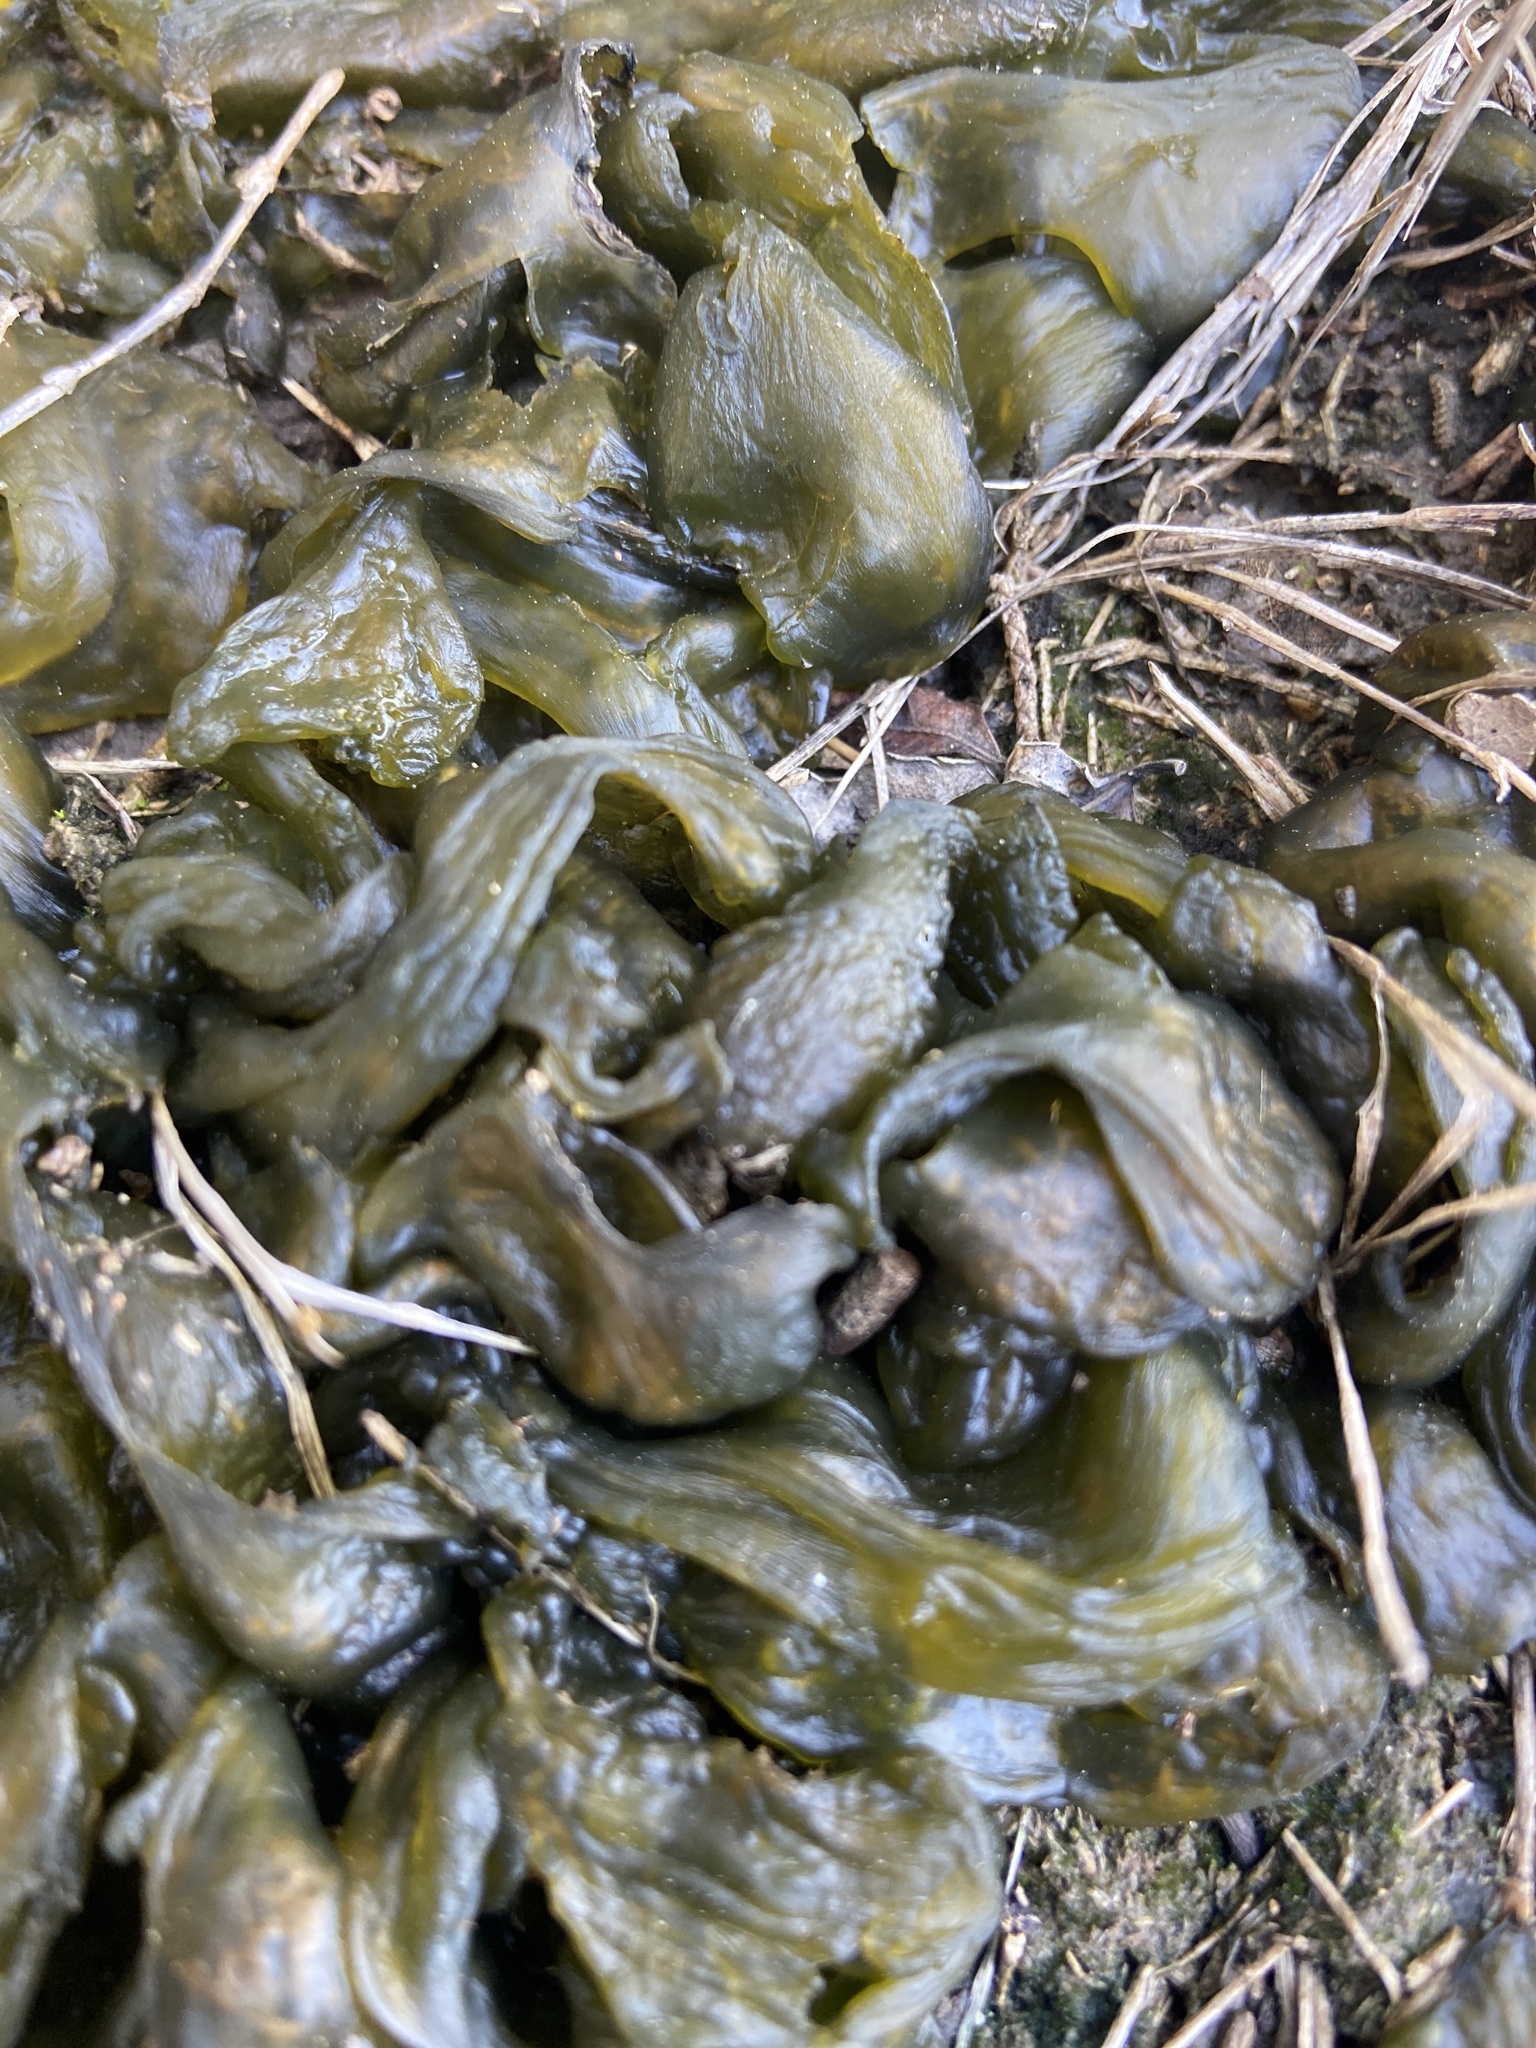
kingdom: Bacteria
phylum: Cyanobacteria
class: Cyanobacteriia
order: Cyanobacteriales
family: Nostocaceae
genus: Nostoc
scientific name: Nostoc commune
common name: Star jelly
